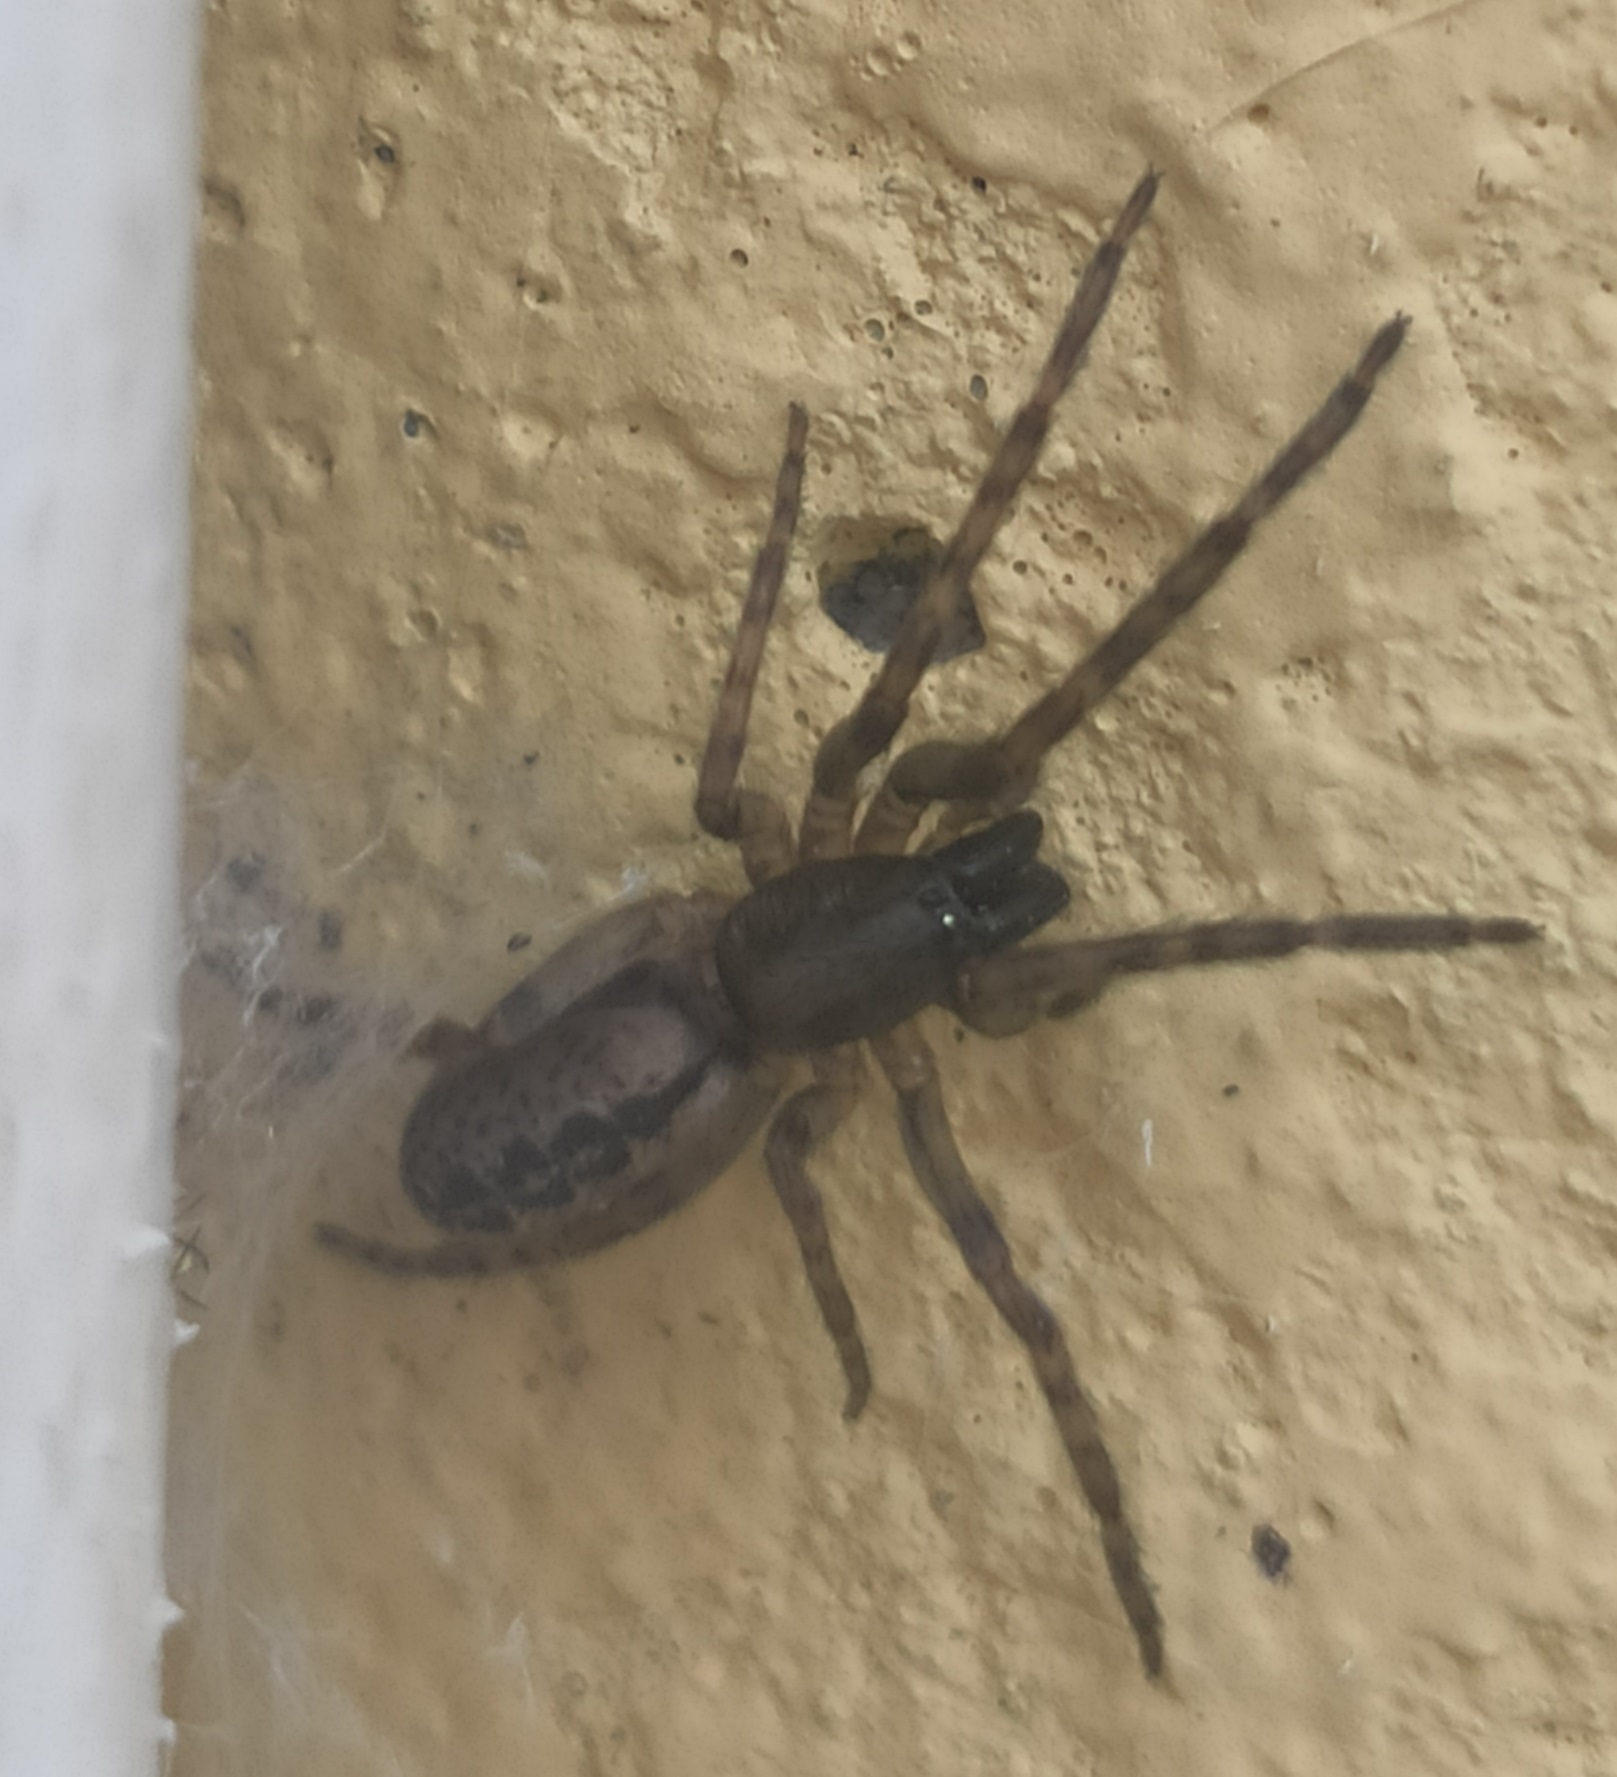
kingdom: Animalia
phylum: Arthropoda
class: Arachnida
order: Araneae
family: Segestriidae
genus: Segestria
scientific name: Segestria bavarica
